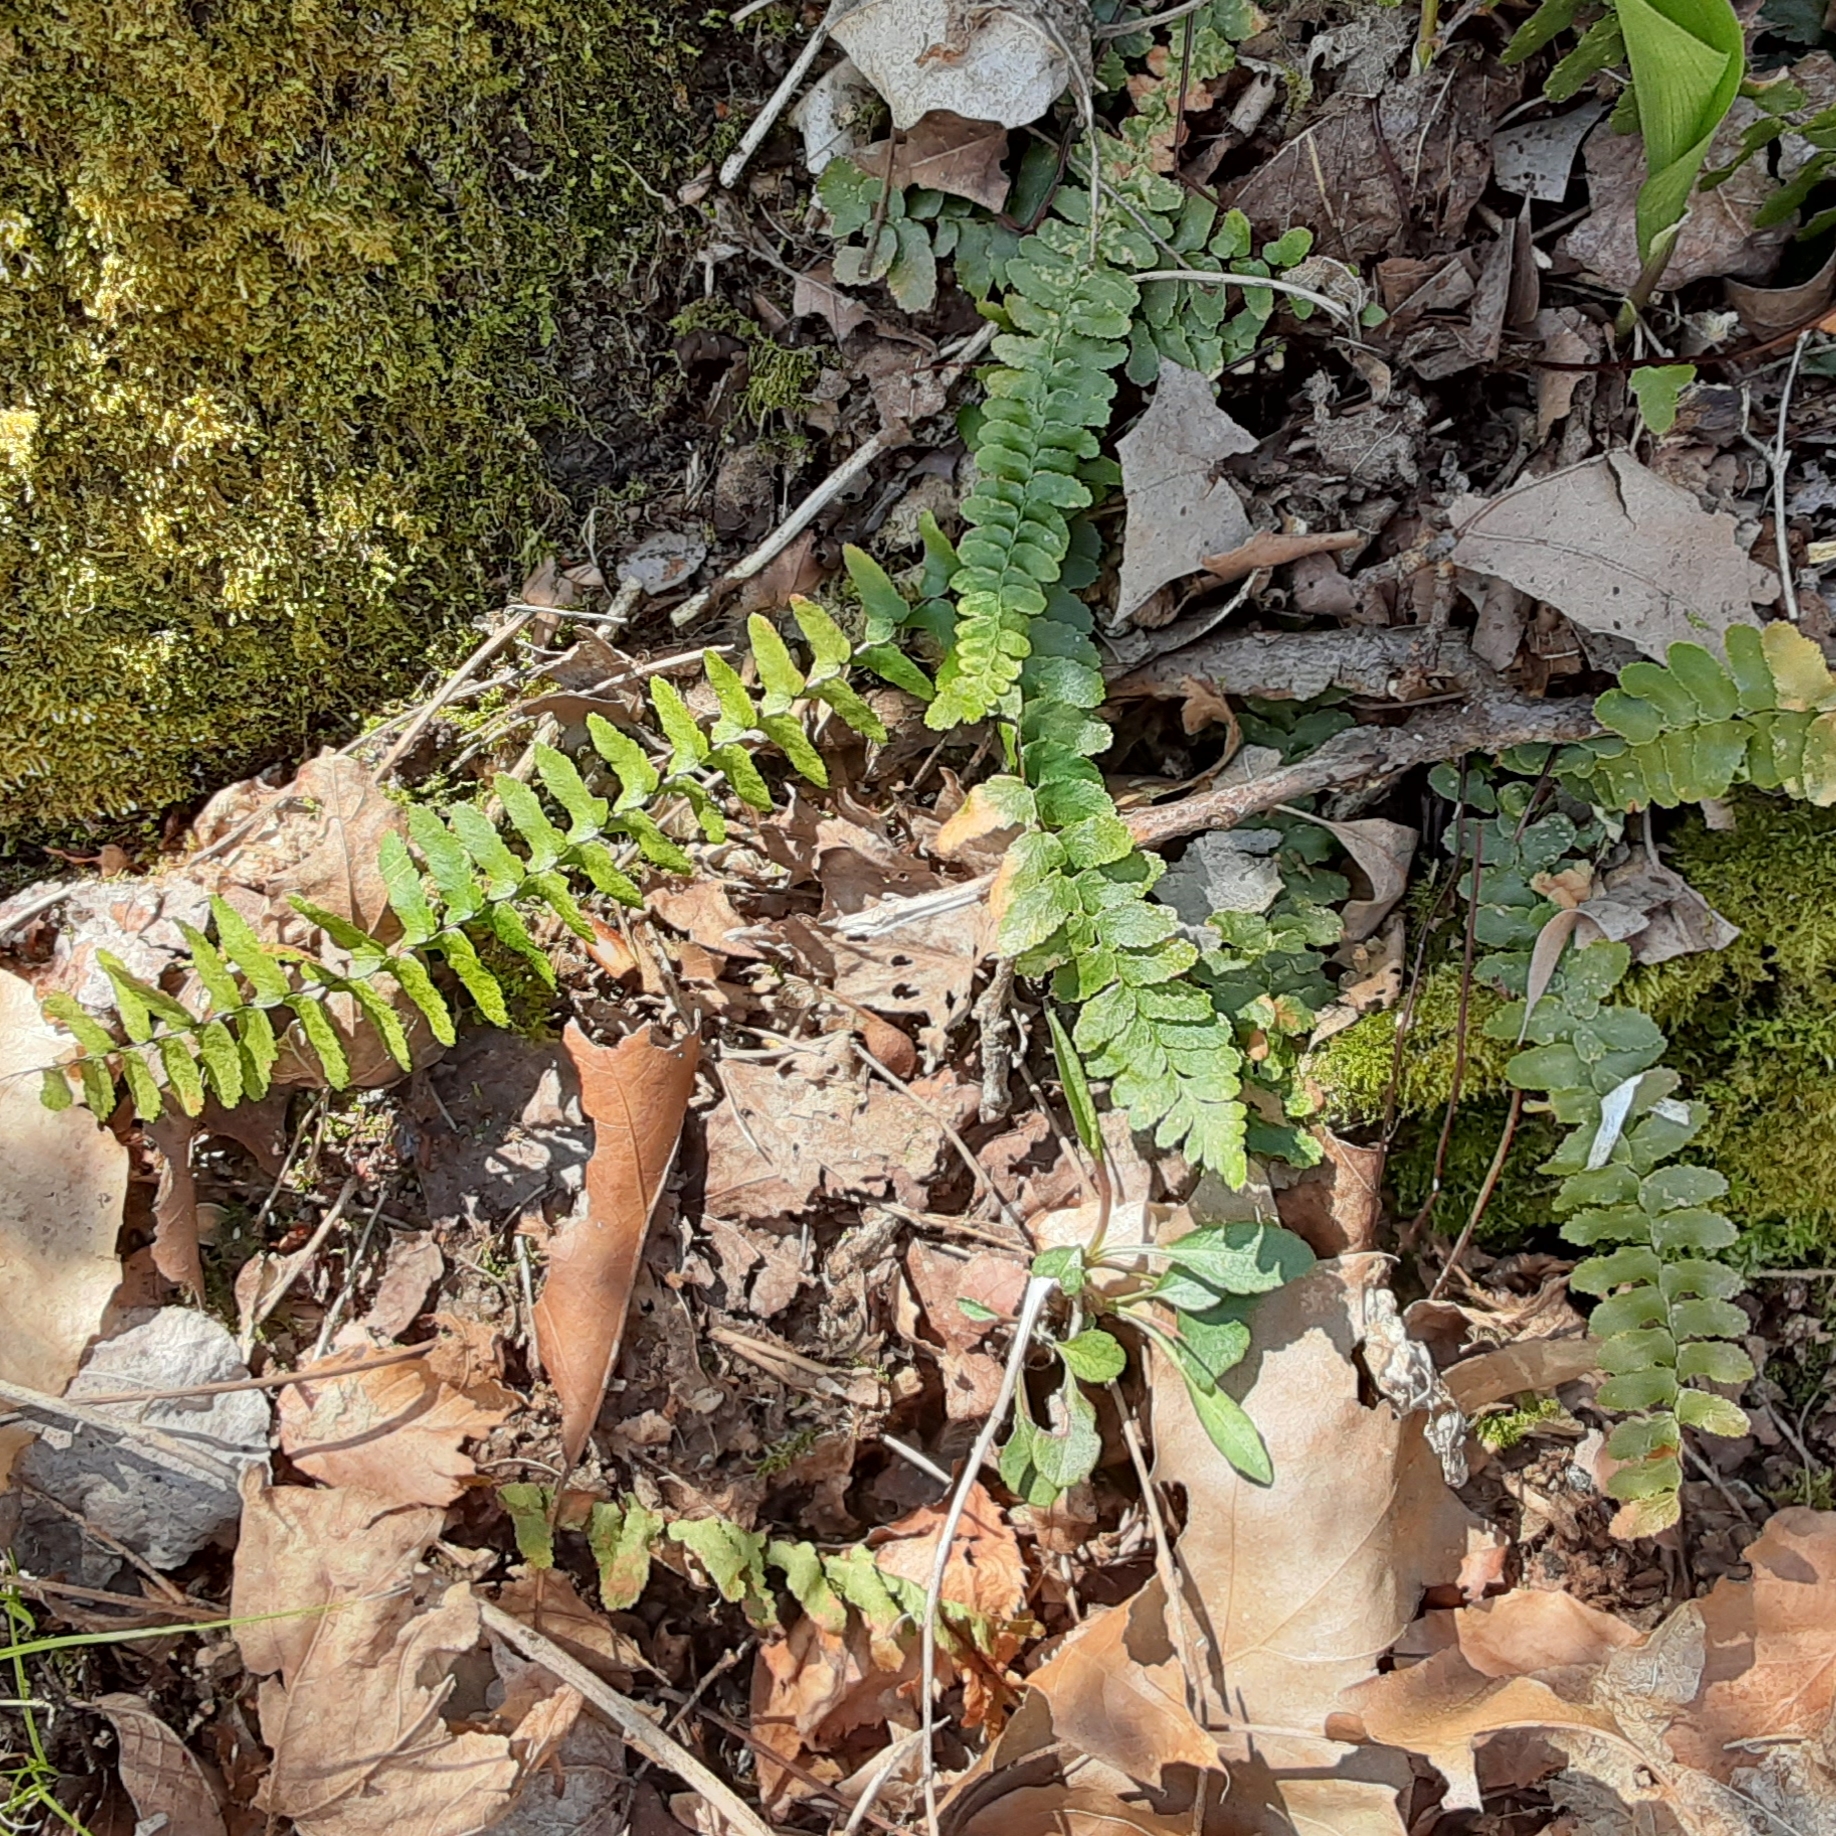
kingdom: Plantae
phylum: Tracheophyta
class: Polypodiopsida
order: Polypodiales
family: Aspleniaceae
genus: Asplenium
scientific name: Asplenium platyneuron
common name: Ebony spleenwort
